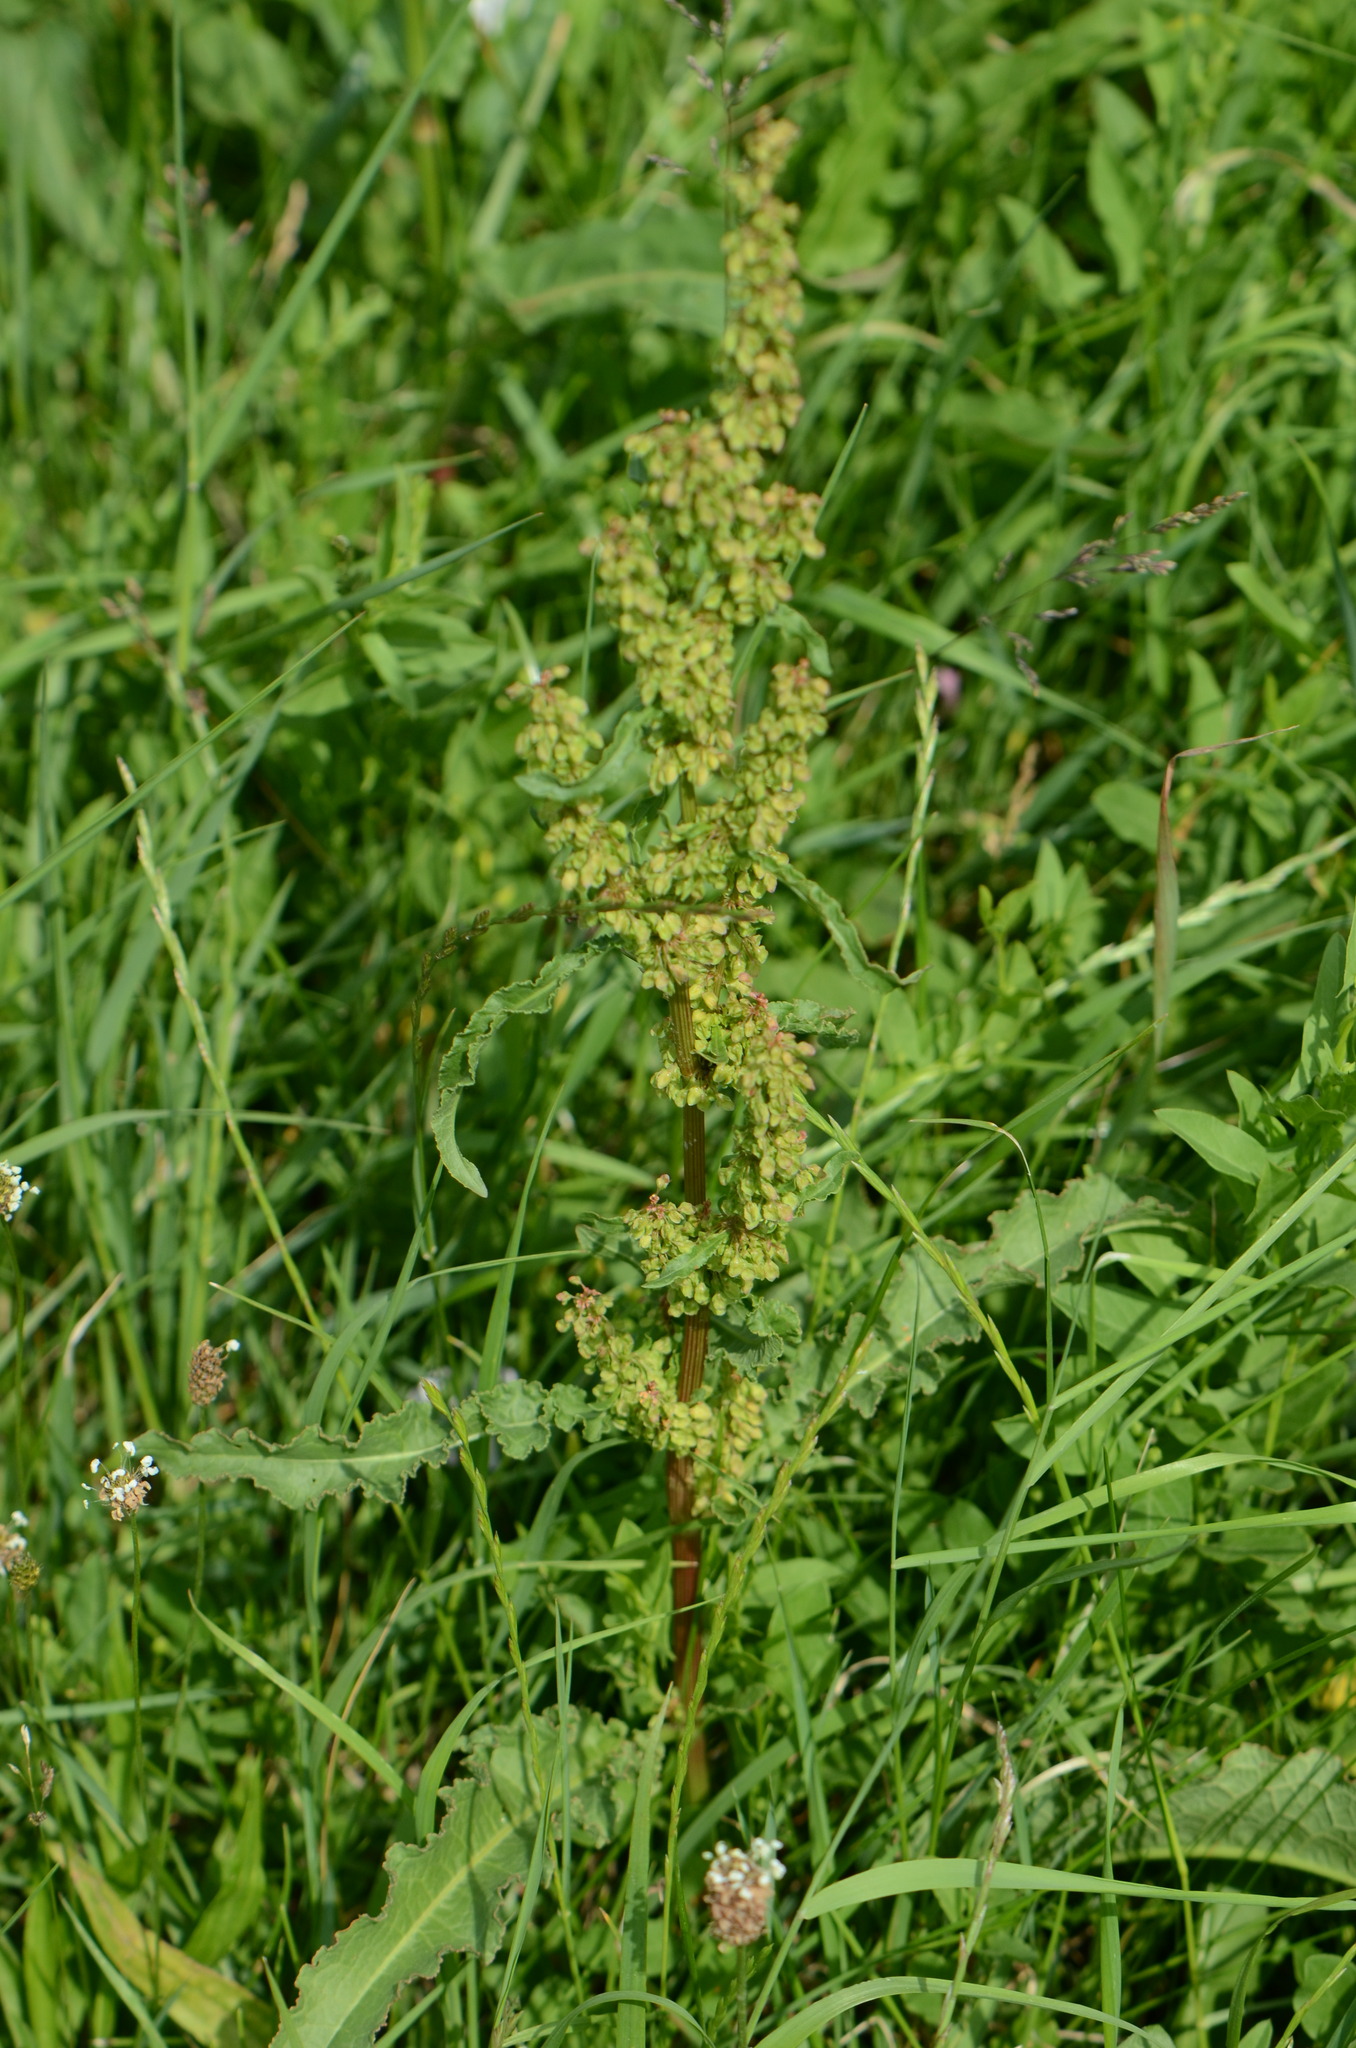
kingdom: Plantae
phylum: Tracheophyta
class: Magnoliopsida
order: Caryophyllales
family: Polygonaceae
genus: Rumex
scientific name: Rumex crispus
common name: Curled dock
